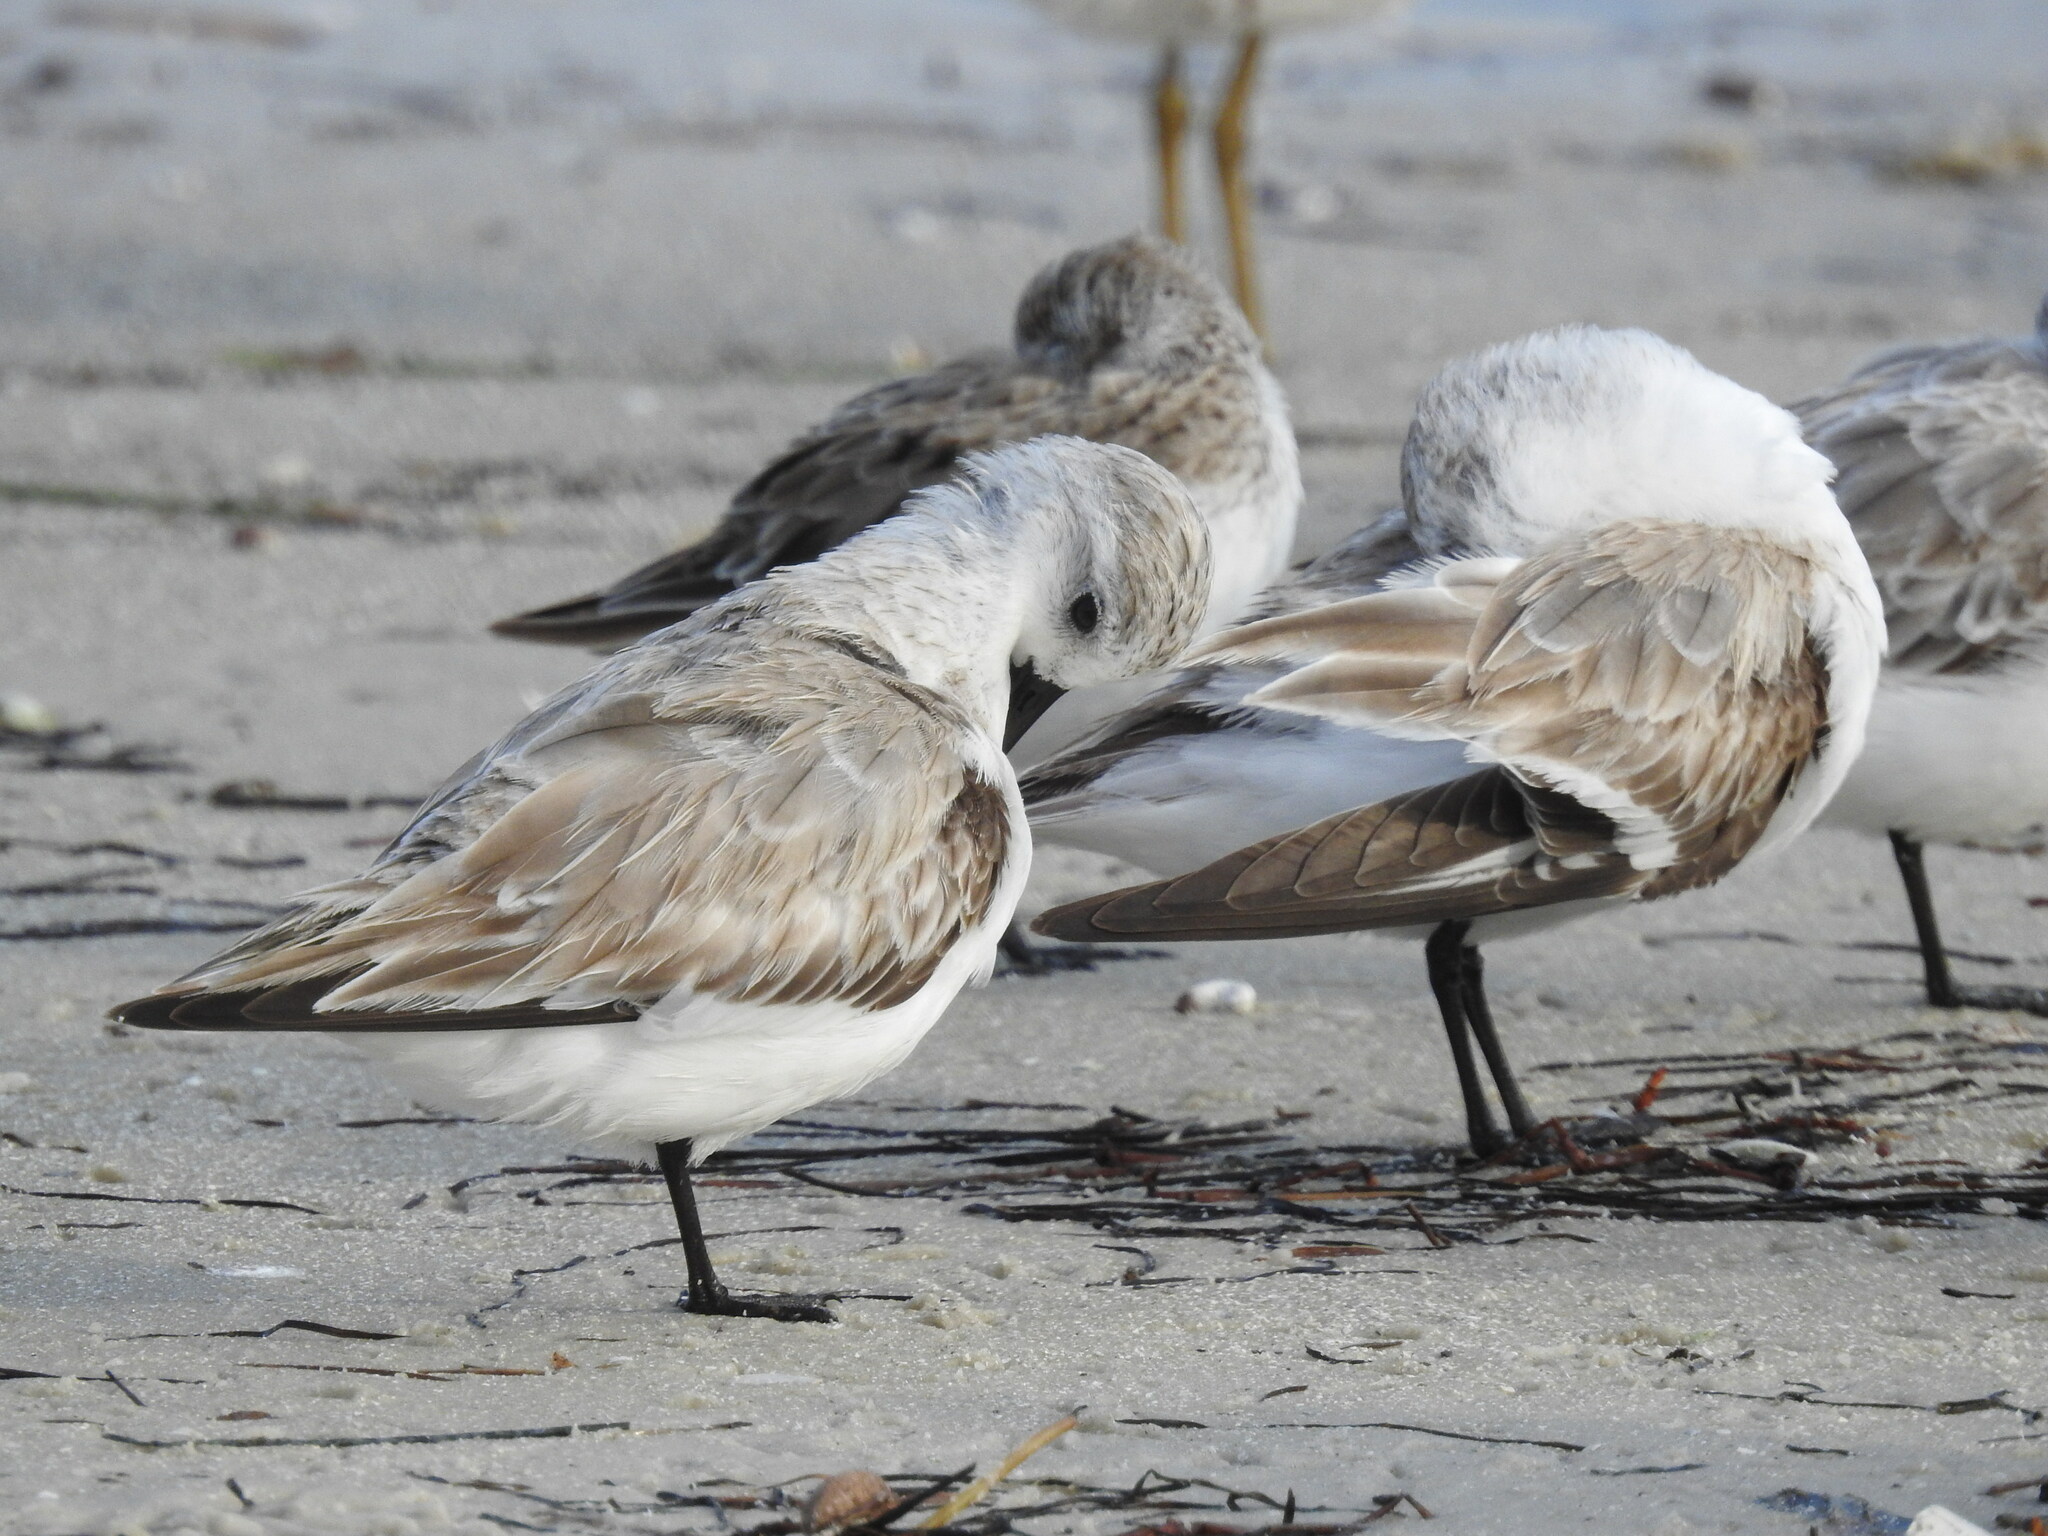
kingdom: Animalia
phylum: Chordata
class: Aves
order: Charadriiformes
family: Scolopacidae
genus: Calidris
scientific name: Calidris alba
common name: Sanderling
